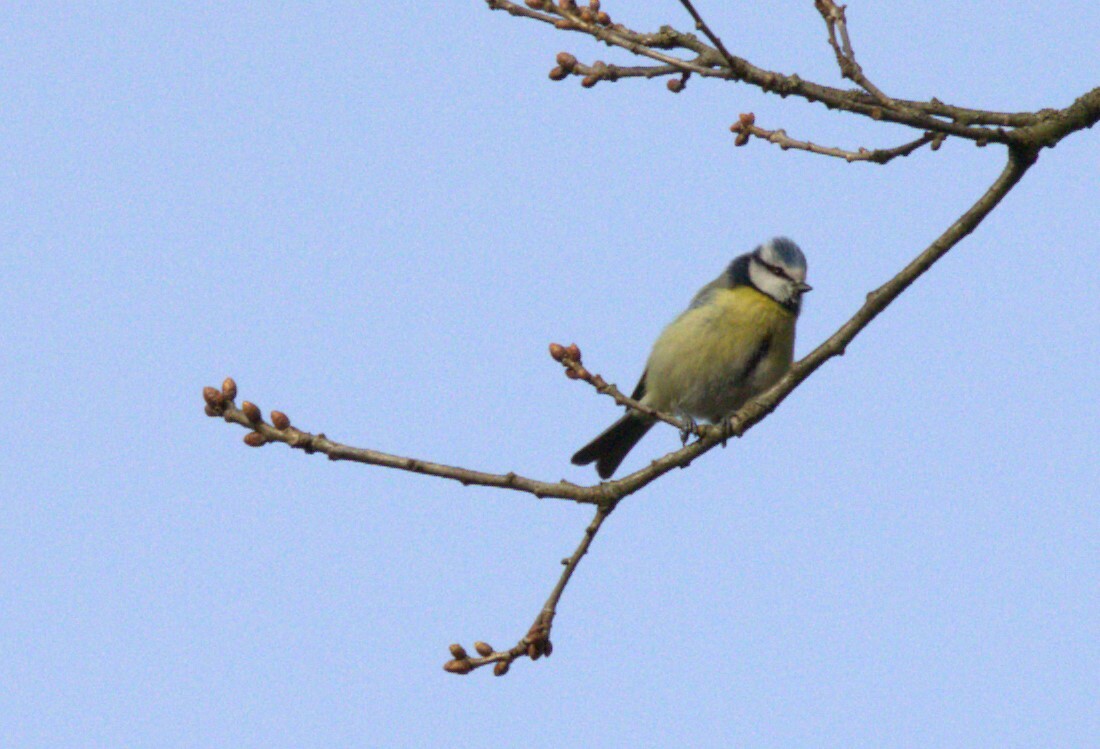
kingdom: Animalia
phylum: Chordata
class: Aves
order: Passeriformes
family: Paridae
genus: Cyanistes
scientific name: Cyanistes caeruleus
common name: Eurasian blue tit
